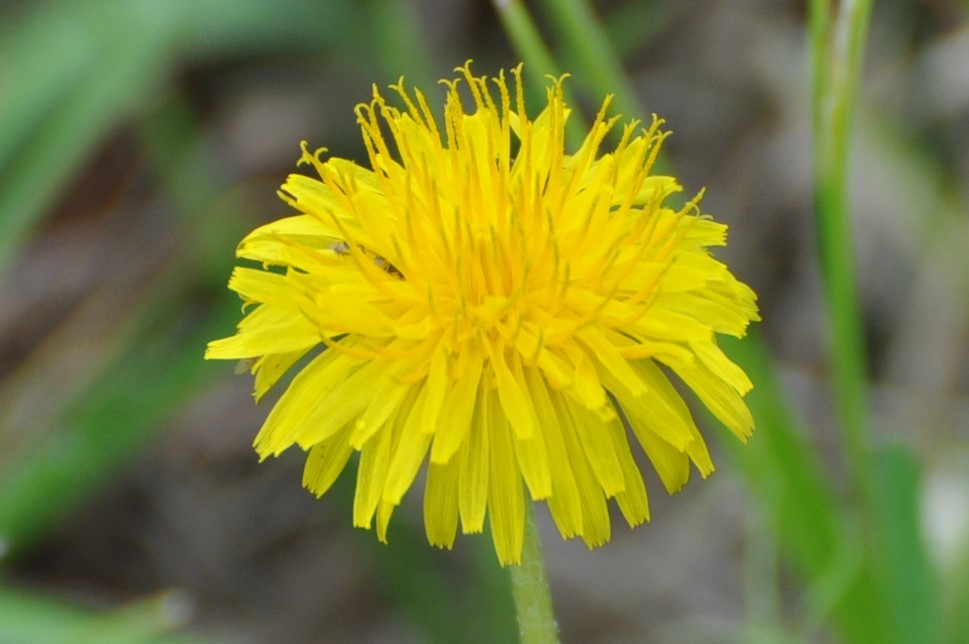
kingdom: Plantae
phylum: Tracheophyta
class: Magnoliopsida
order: Asterales
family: Asteraceae
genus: Taraxacum
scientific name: Taraxacum officinale
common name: Common dandelion
